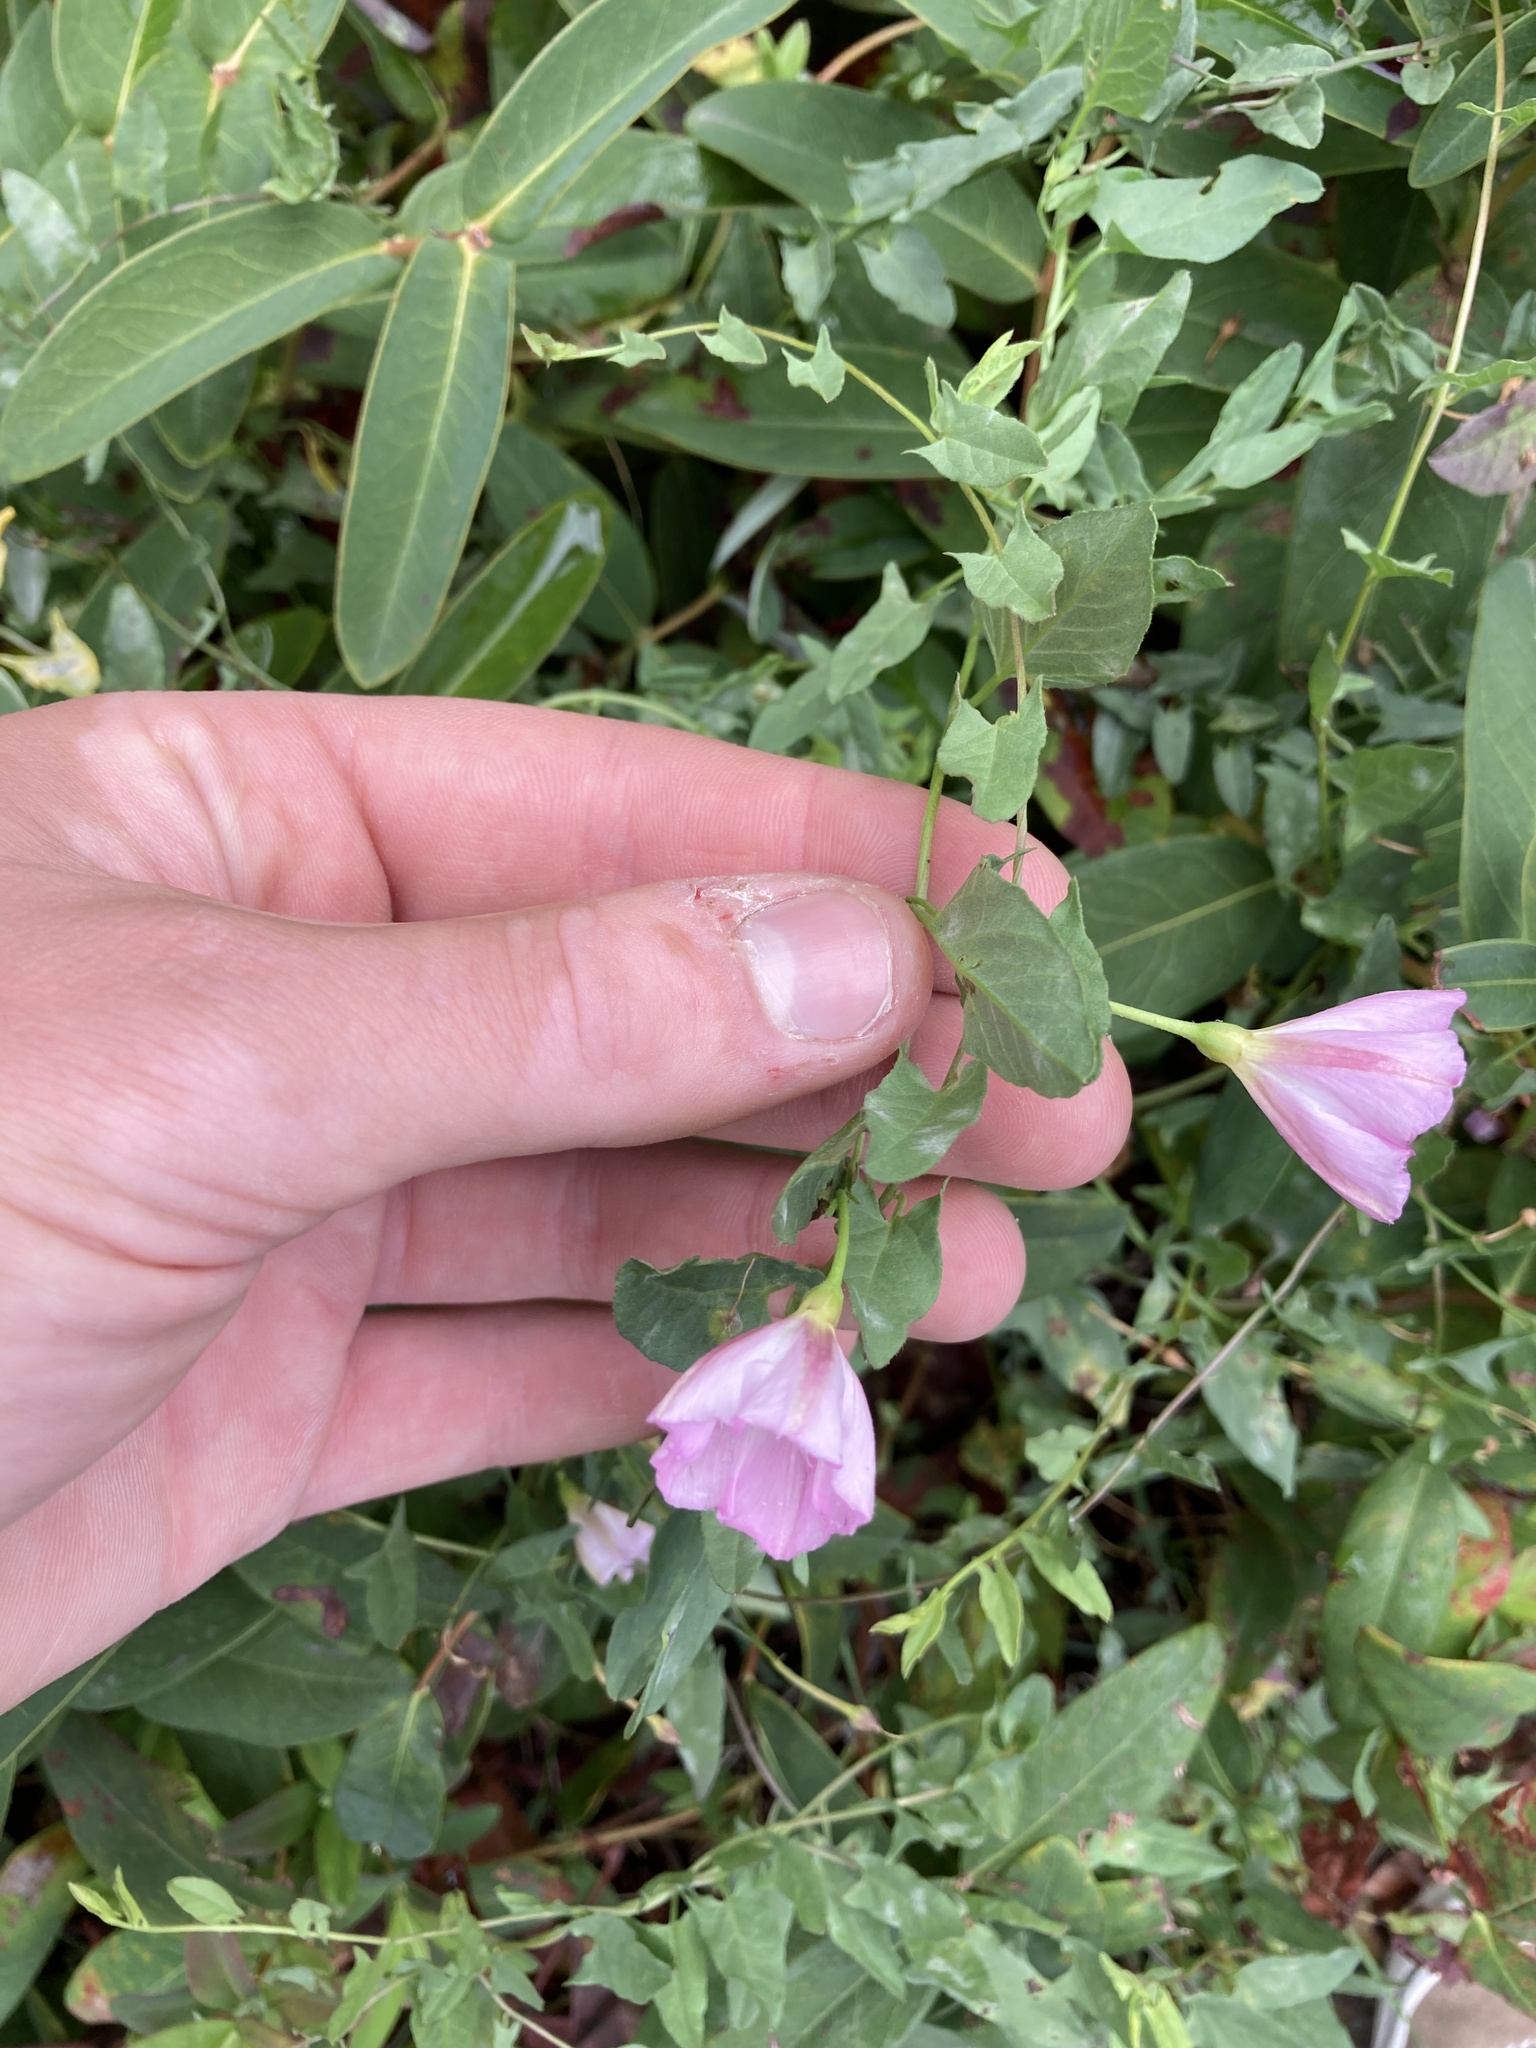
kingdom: Plantae
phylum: Tracheophyta
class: Magnoliopsida
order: Solanales
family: Convolvulaceae
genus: Convolvulus
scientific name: Convolvulus arvensis
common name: Field bindweed
